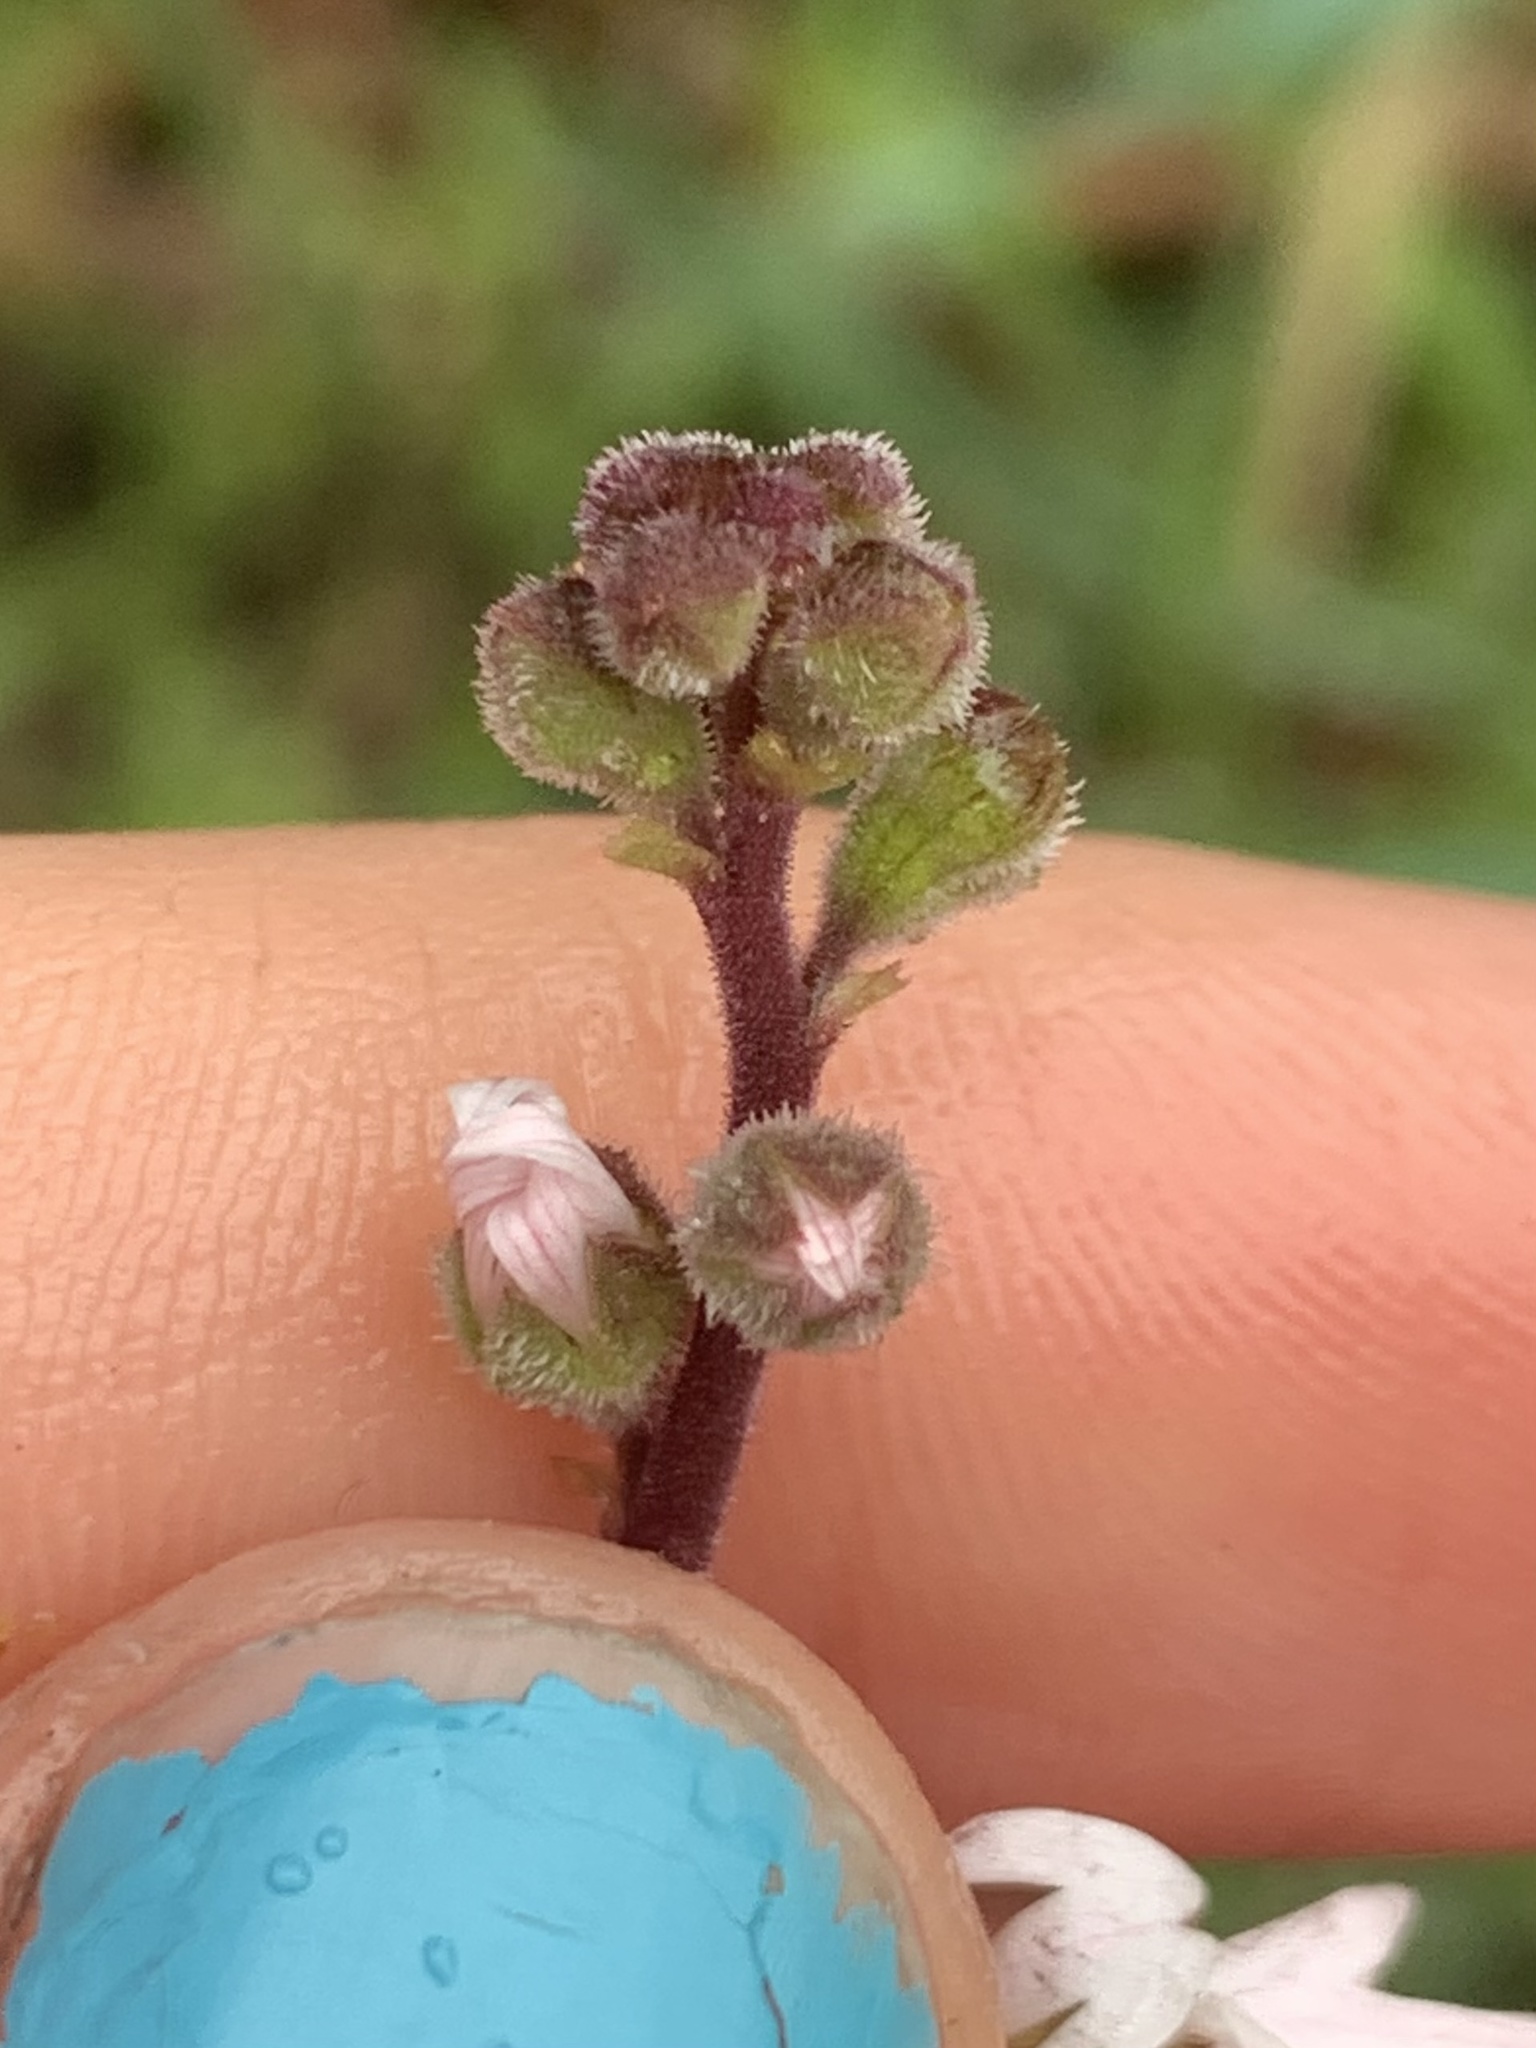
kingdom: Plantae
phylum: Tracheophyta
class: Magnoliopsida
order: Saxifragales
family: Saxifragaceae
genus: Lithophragma
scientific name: Lithophragma parviflorum
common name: Small-flowered fringe-cup
